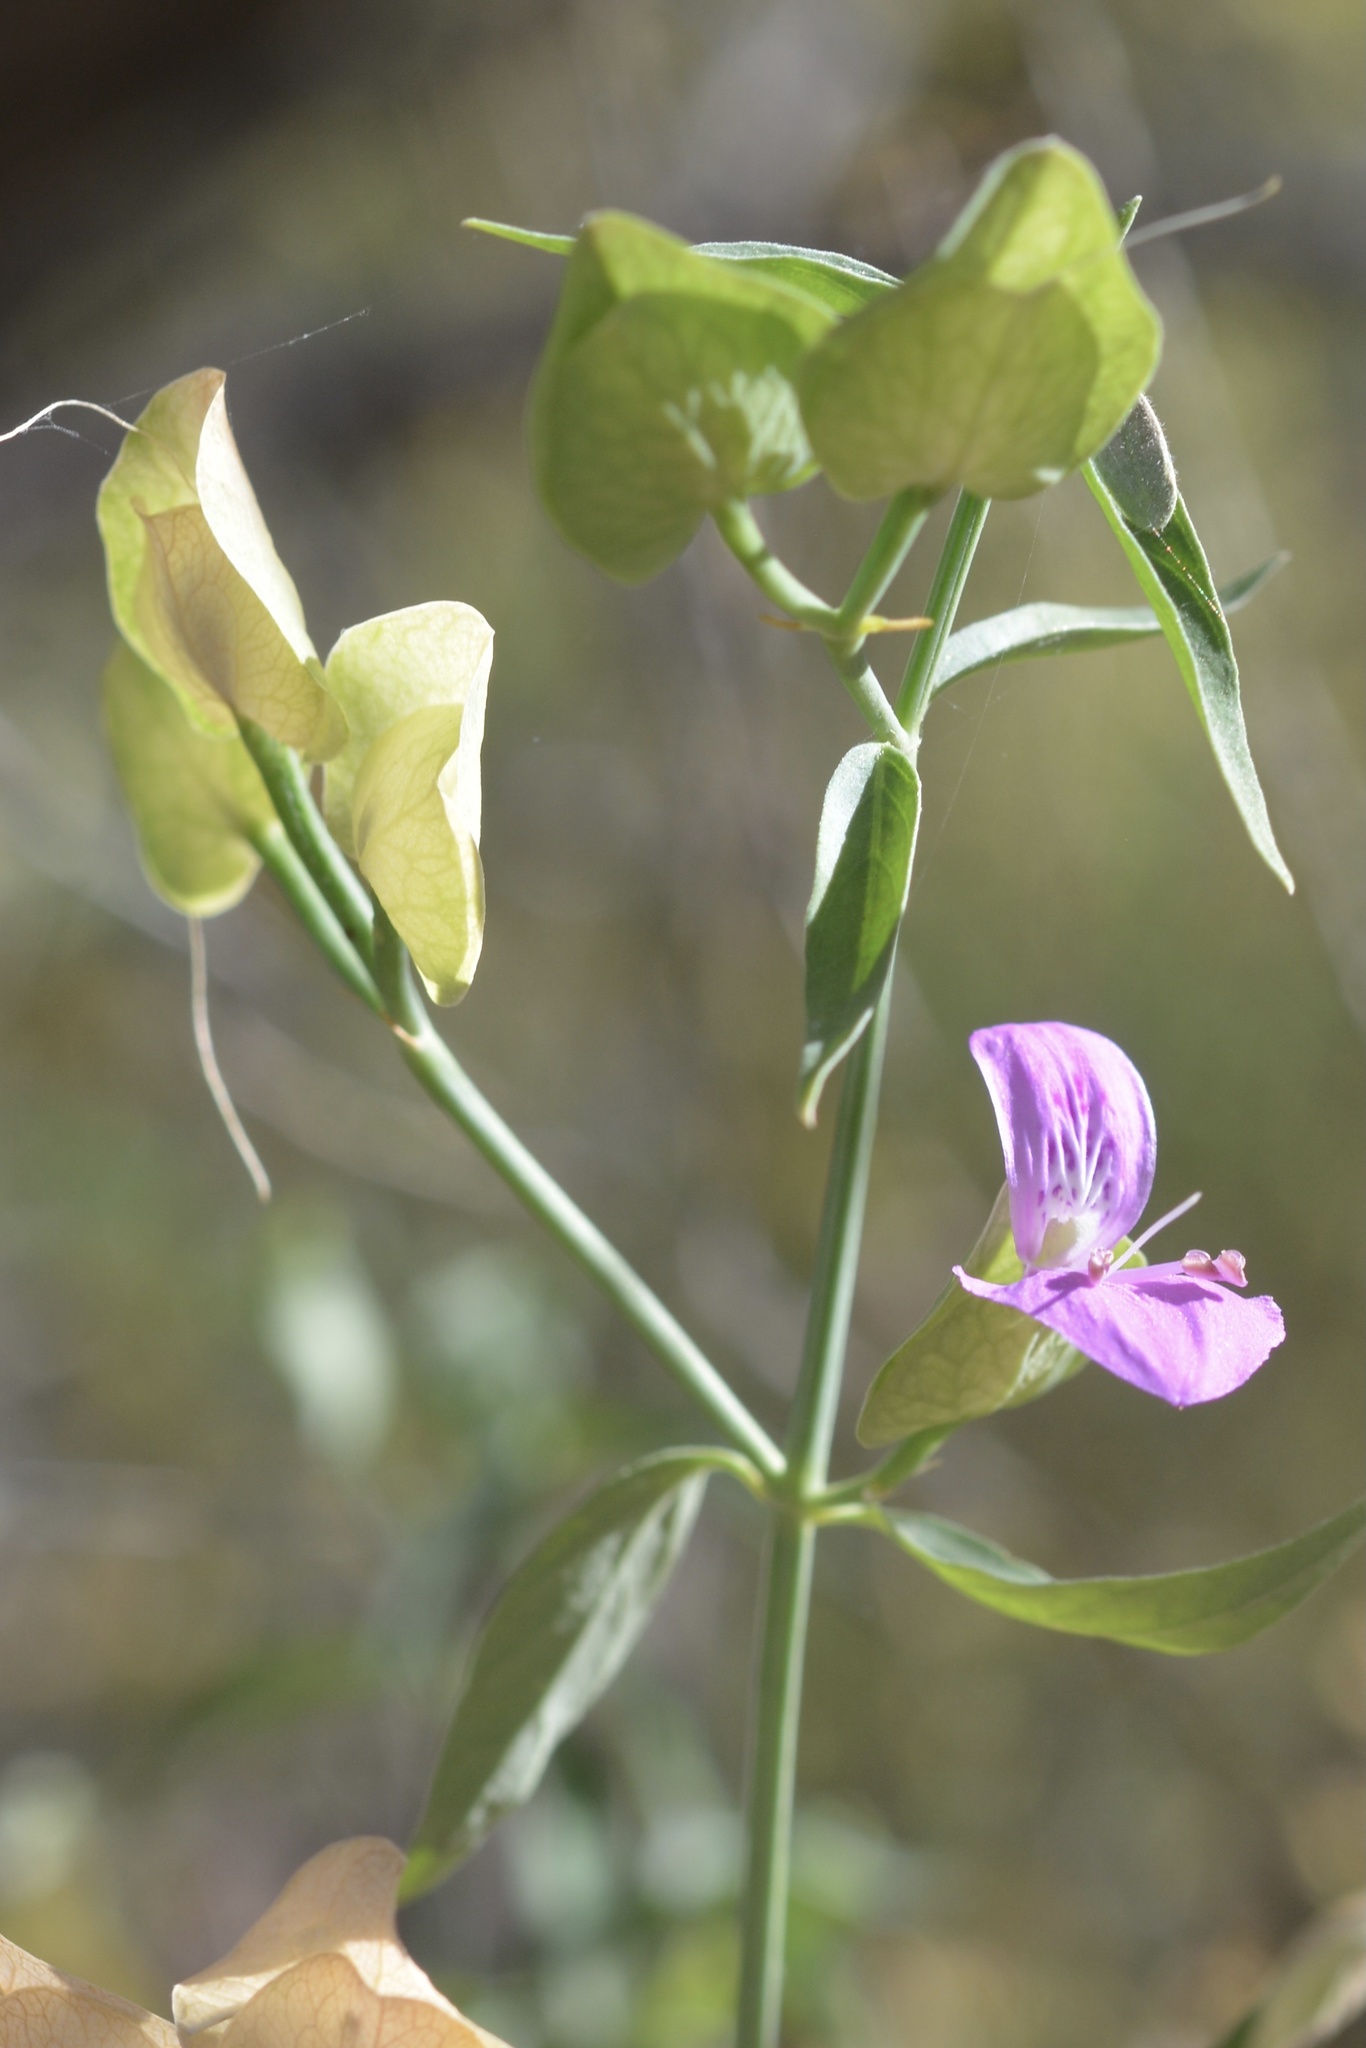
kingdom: Plantae
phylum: Tracheophyta
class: Magnoliopsida
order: Lamiales
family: Acanthaceae
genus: Dicliptera
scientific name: Dicliptera resupinata
